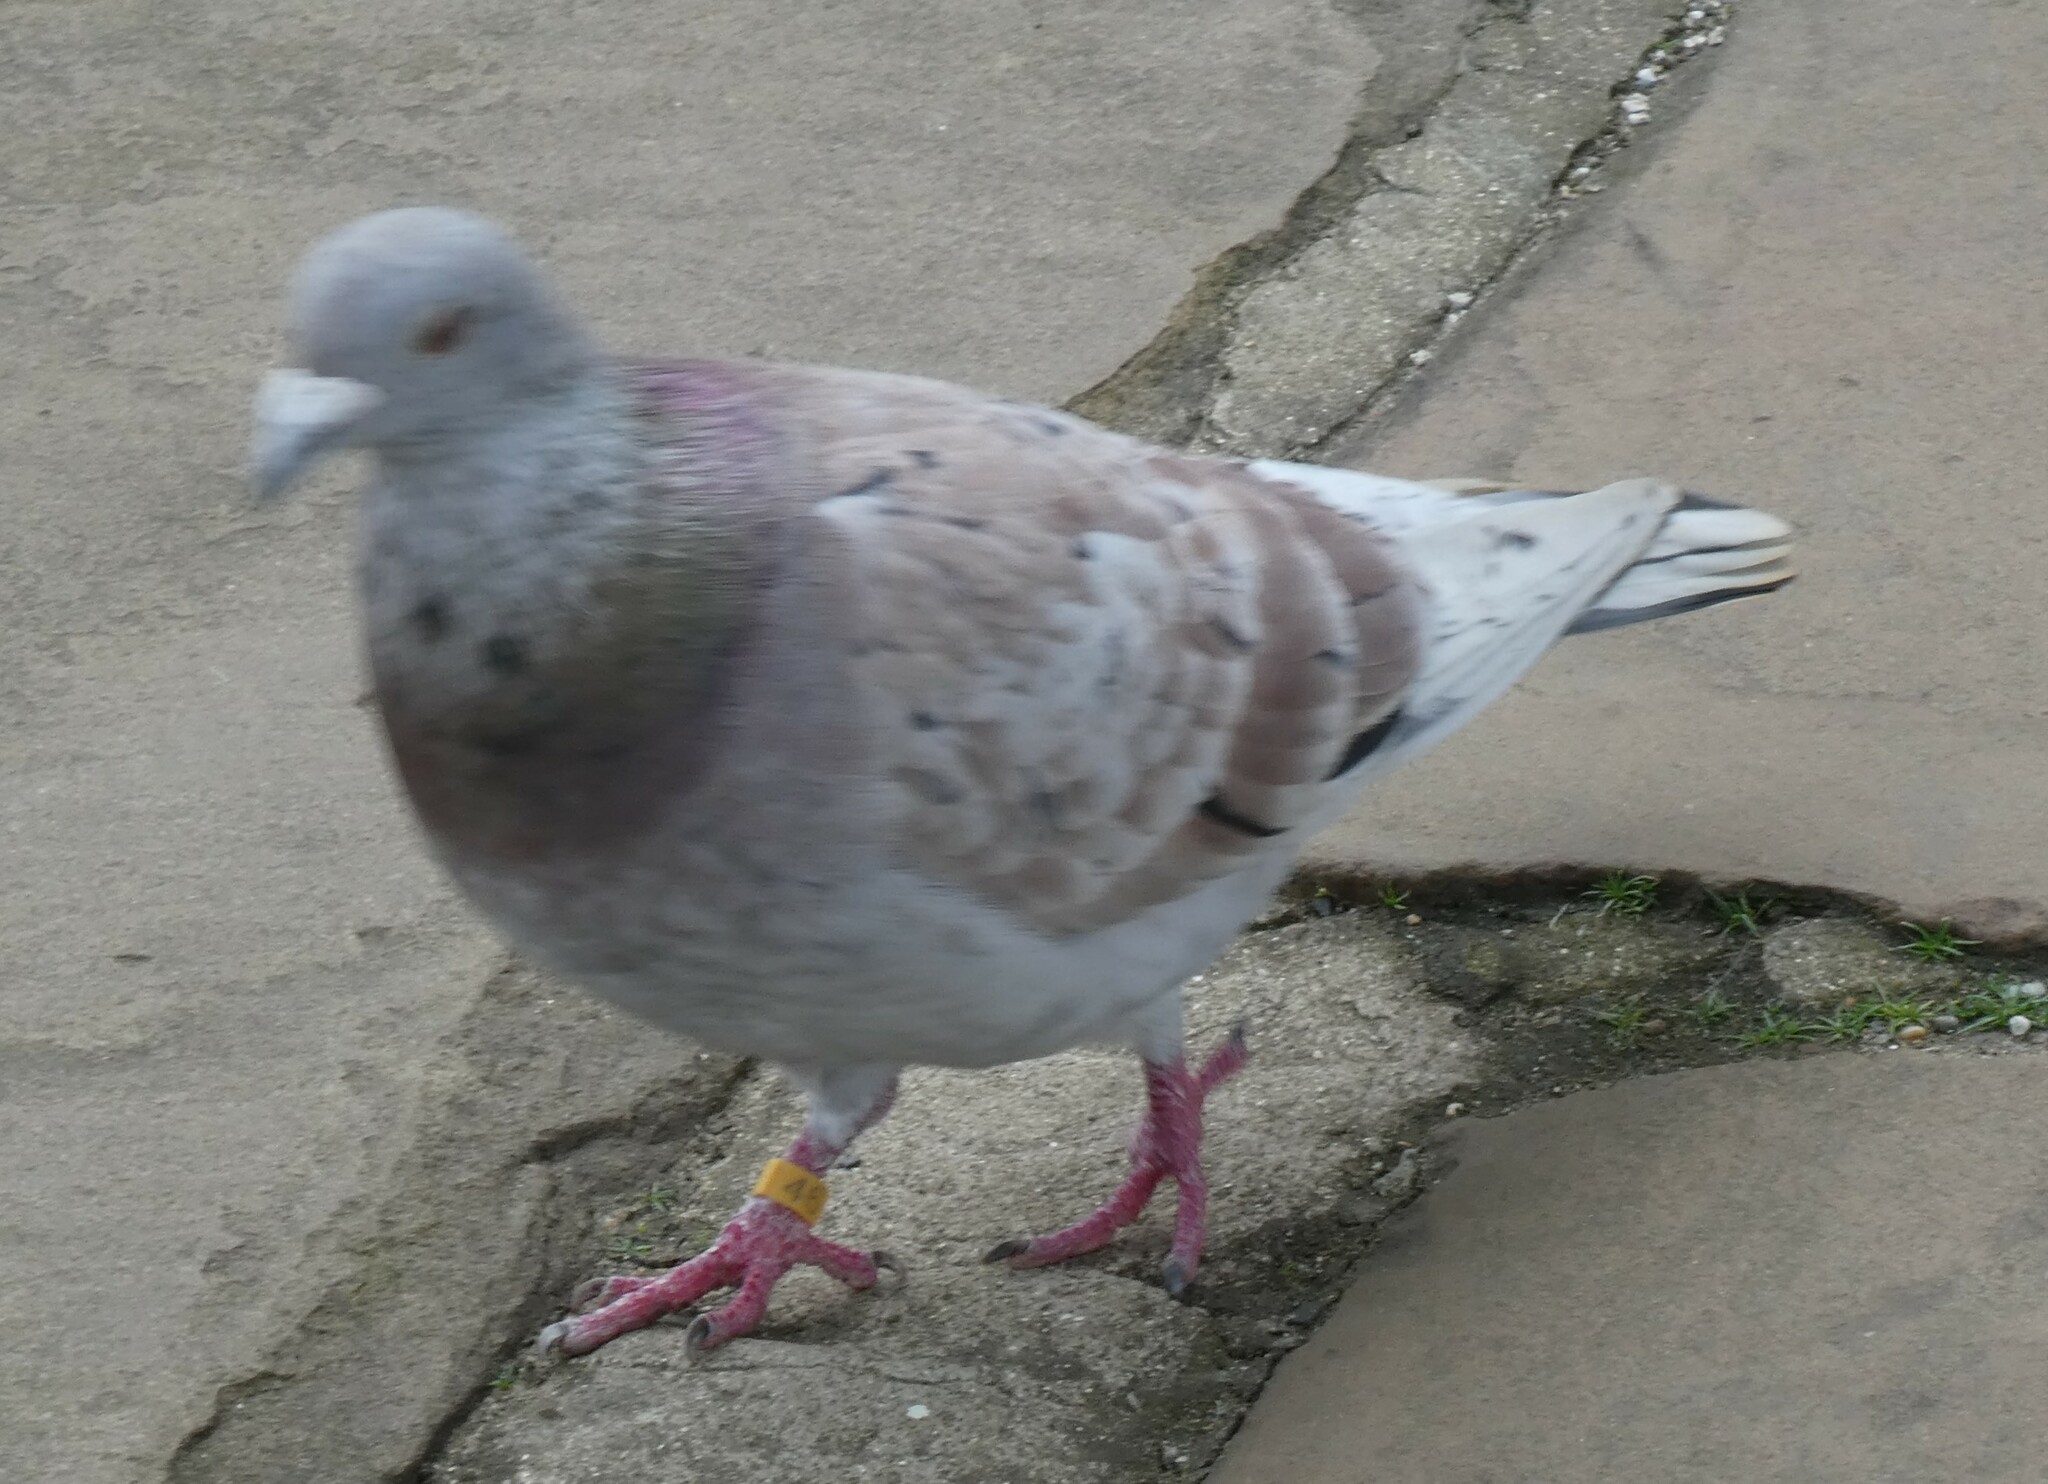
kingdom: Animalia
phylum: Chordata
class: Aves
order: Columbiformes
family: Columbidae
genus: Columba
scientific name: Columba livia
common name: Rock pigeon
